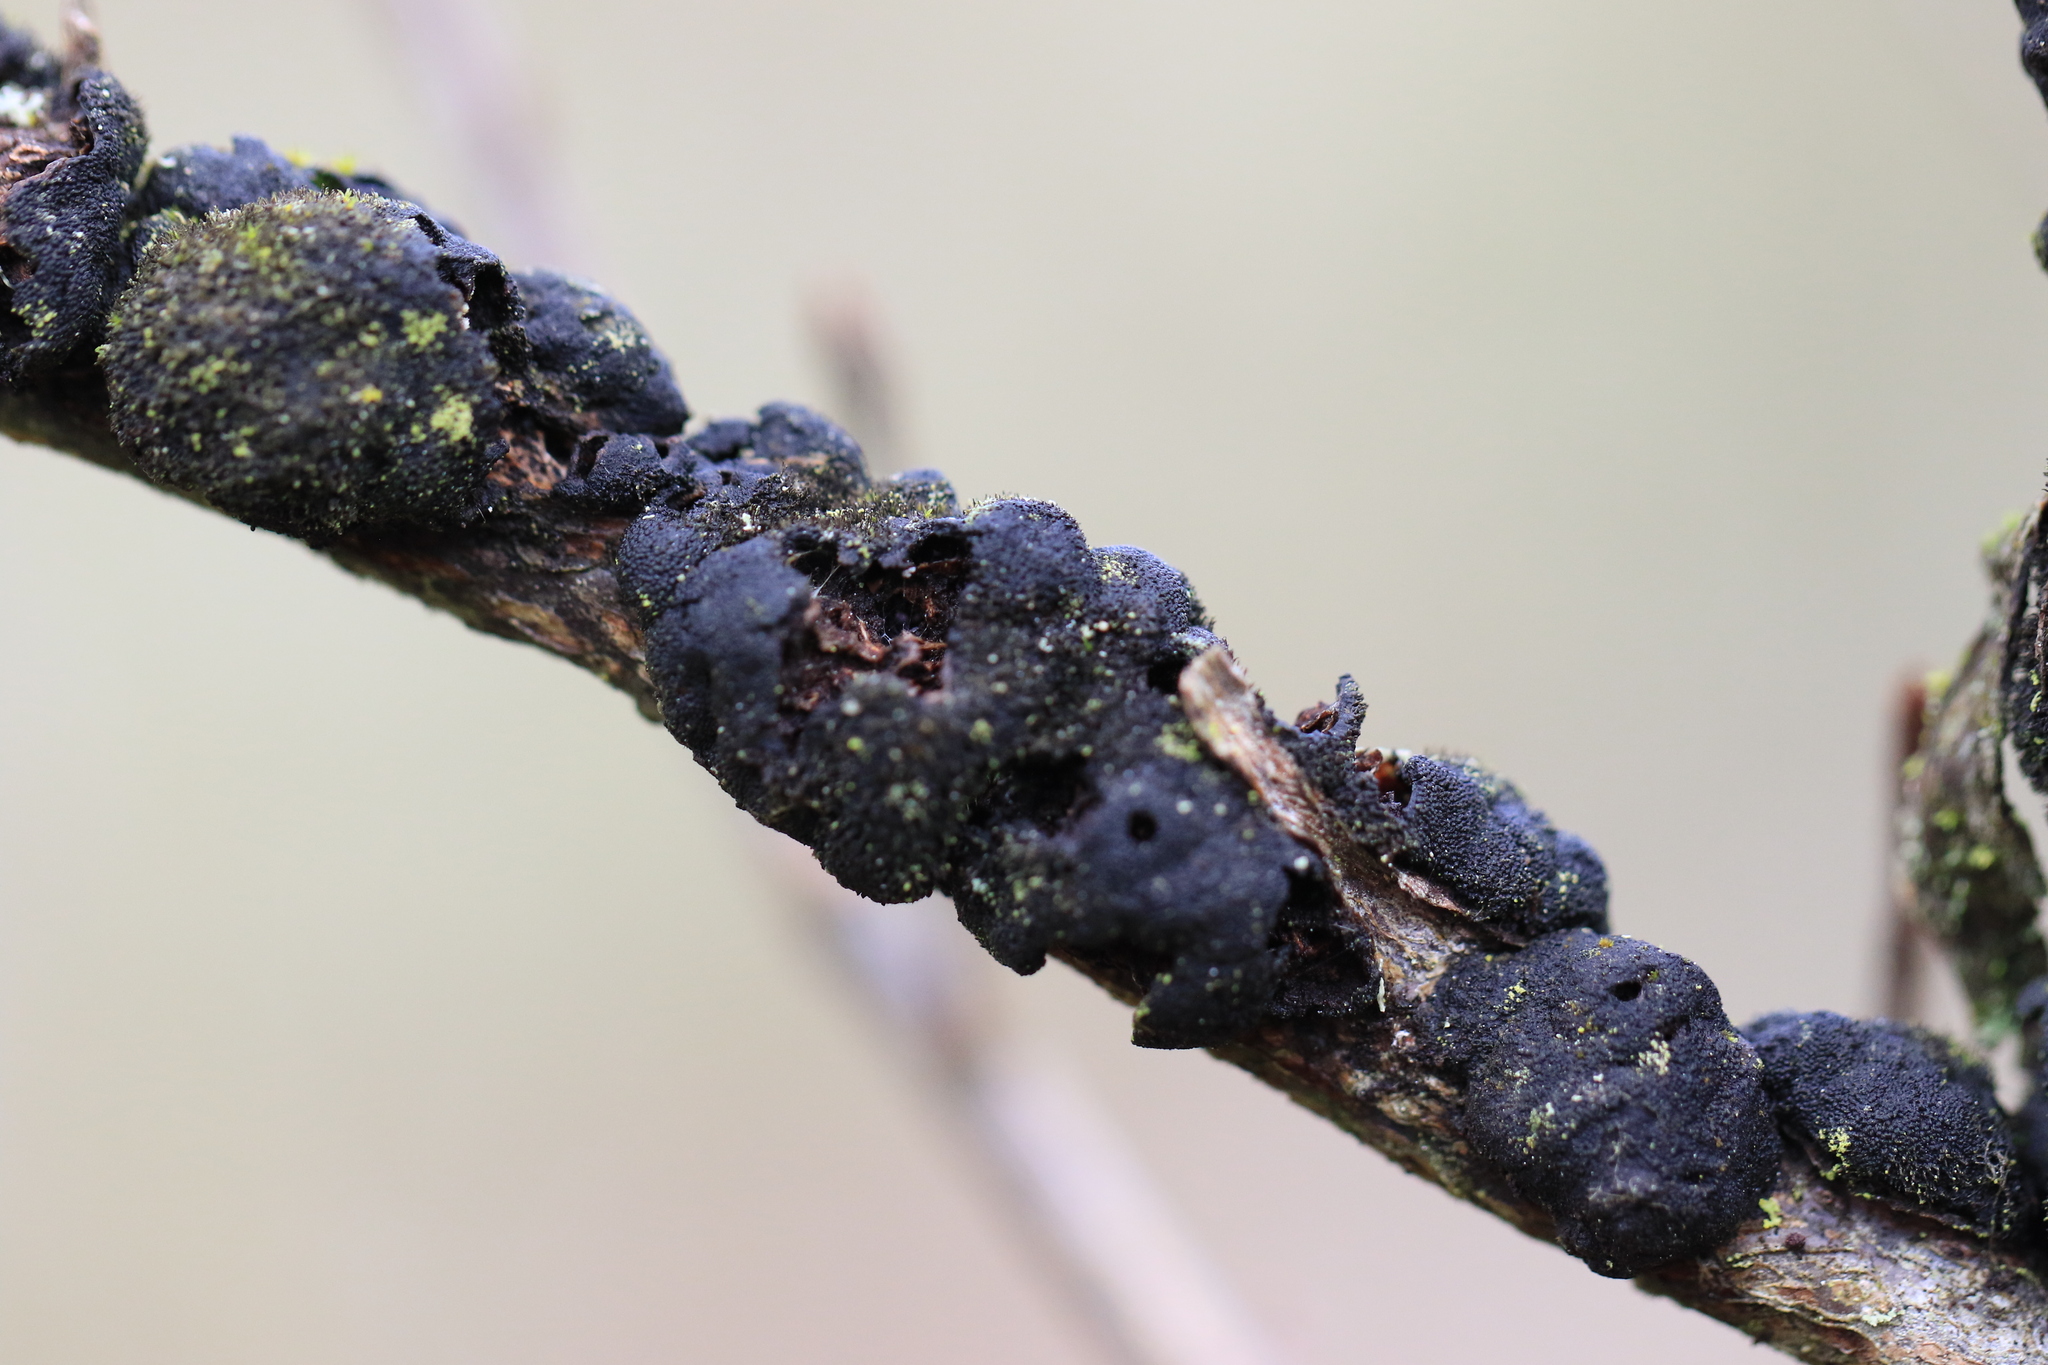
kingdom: Fungi
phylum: Ascomycota
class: Dothideomycetes
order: Venturiales
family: Venturiaceae
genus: Apiosporina
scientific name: Apiosporina morbosa
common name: Black knot
